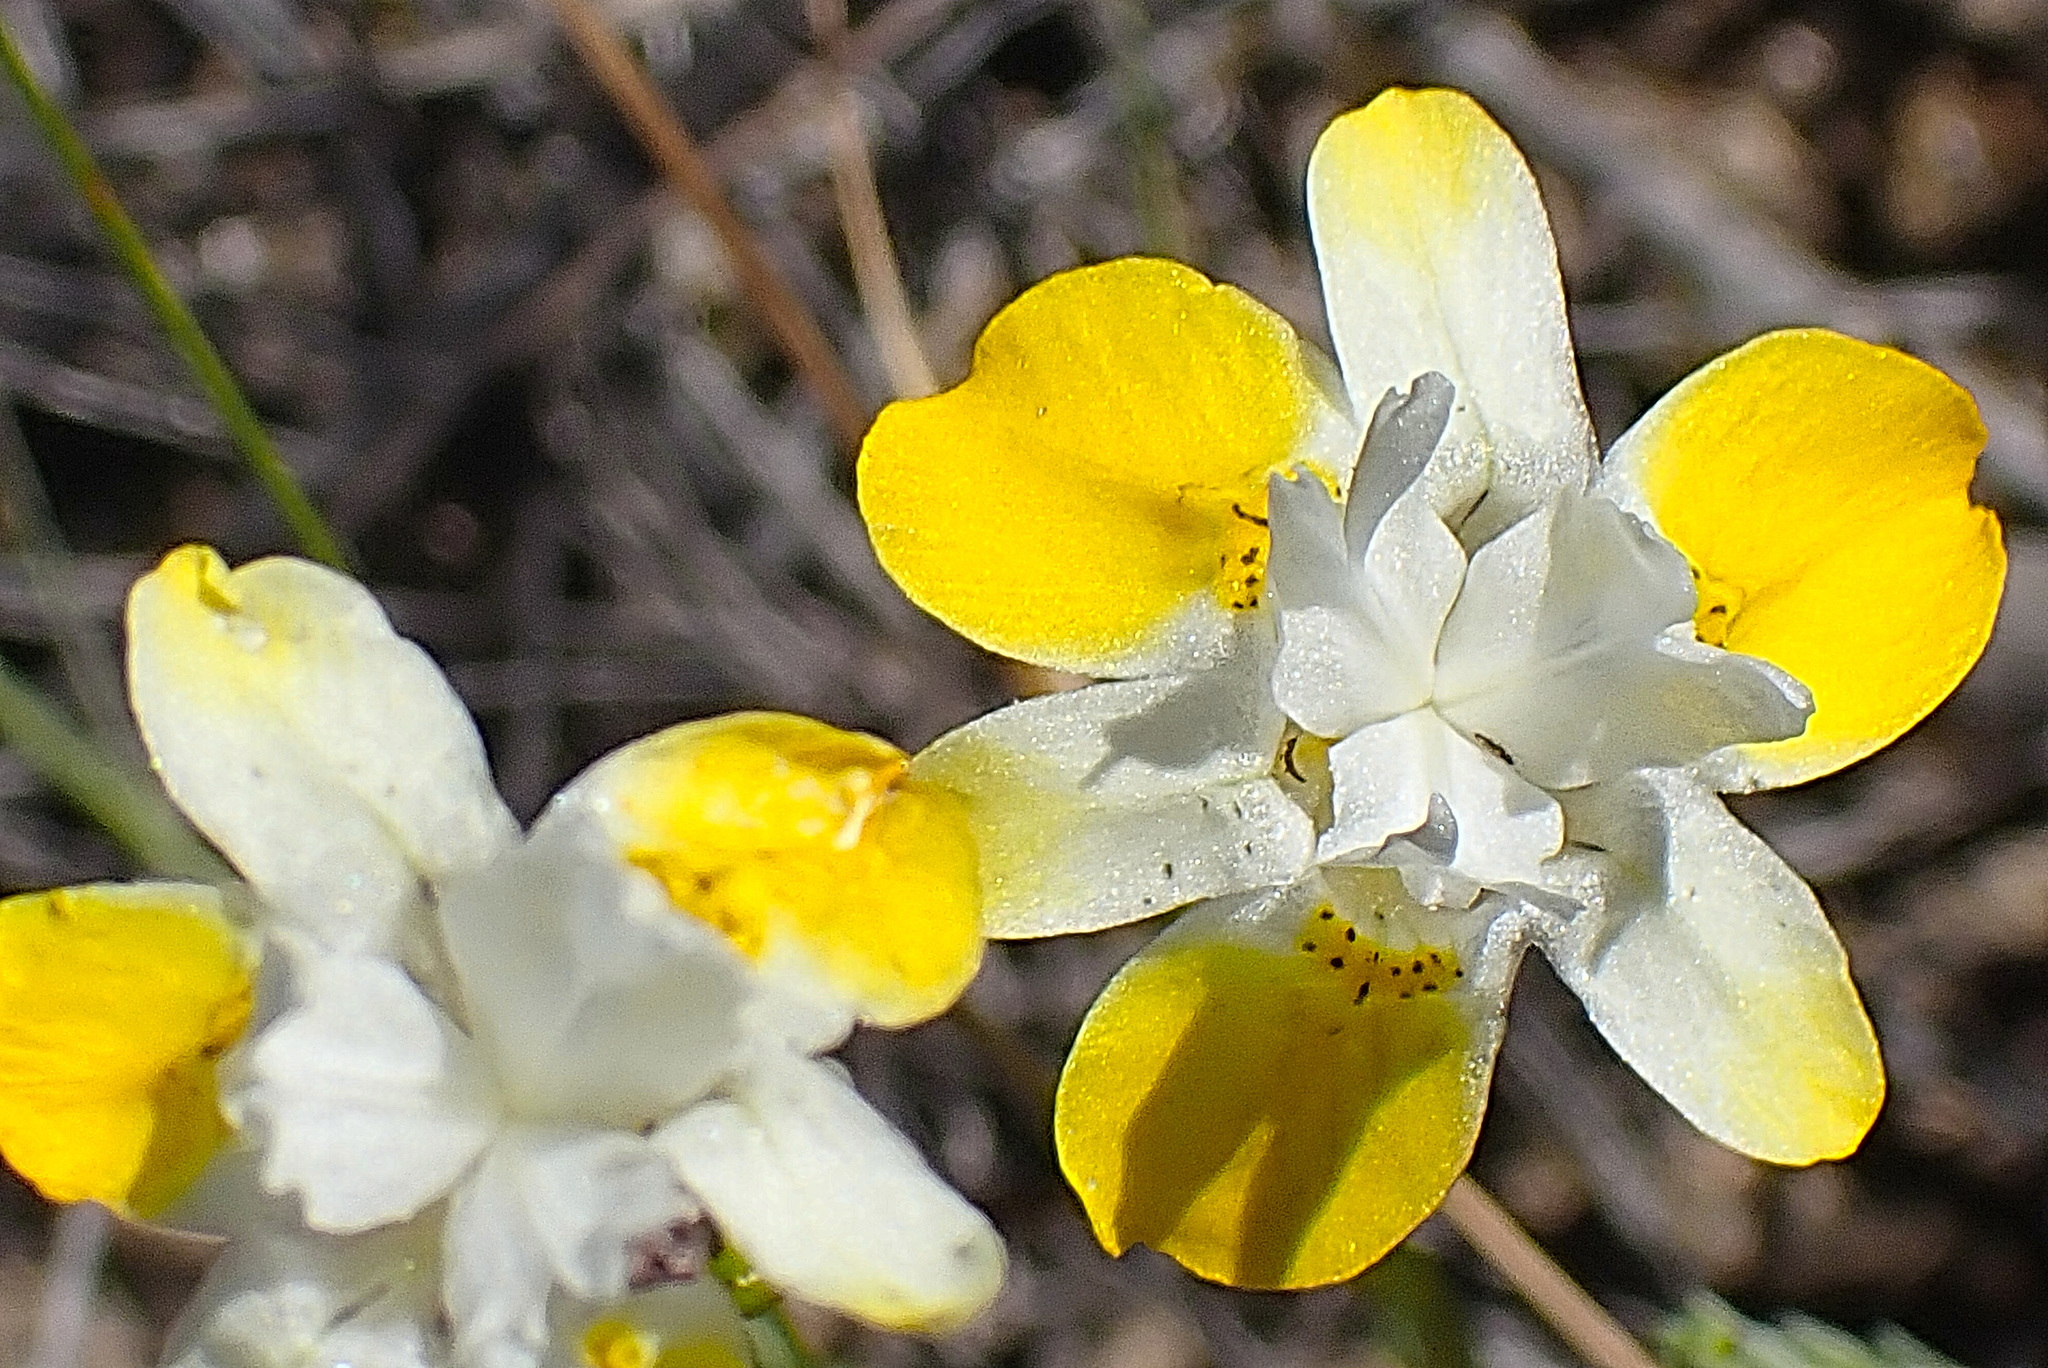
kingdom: Plantae
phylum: Tracheophyta
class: Liliopsida
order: Asparagales
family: Iridaceae
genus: Moraea
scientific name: Moraea gawleri
